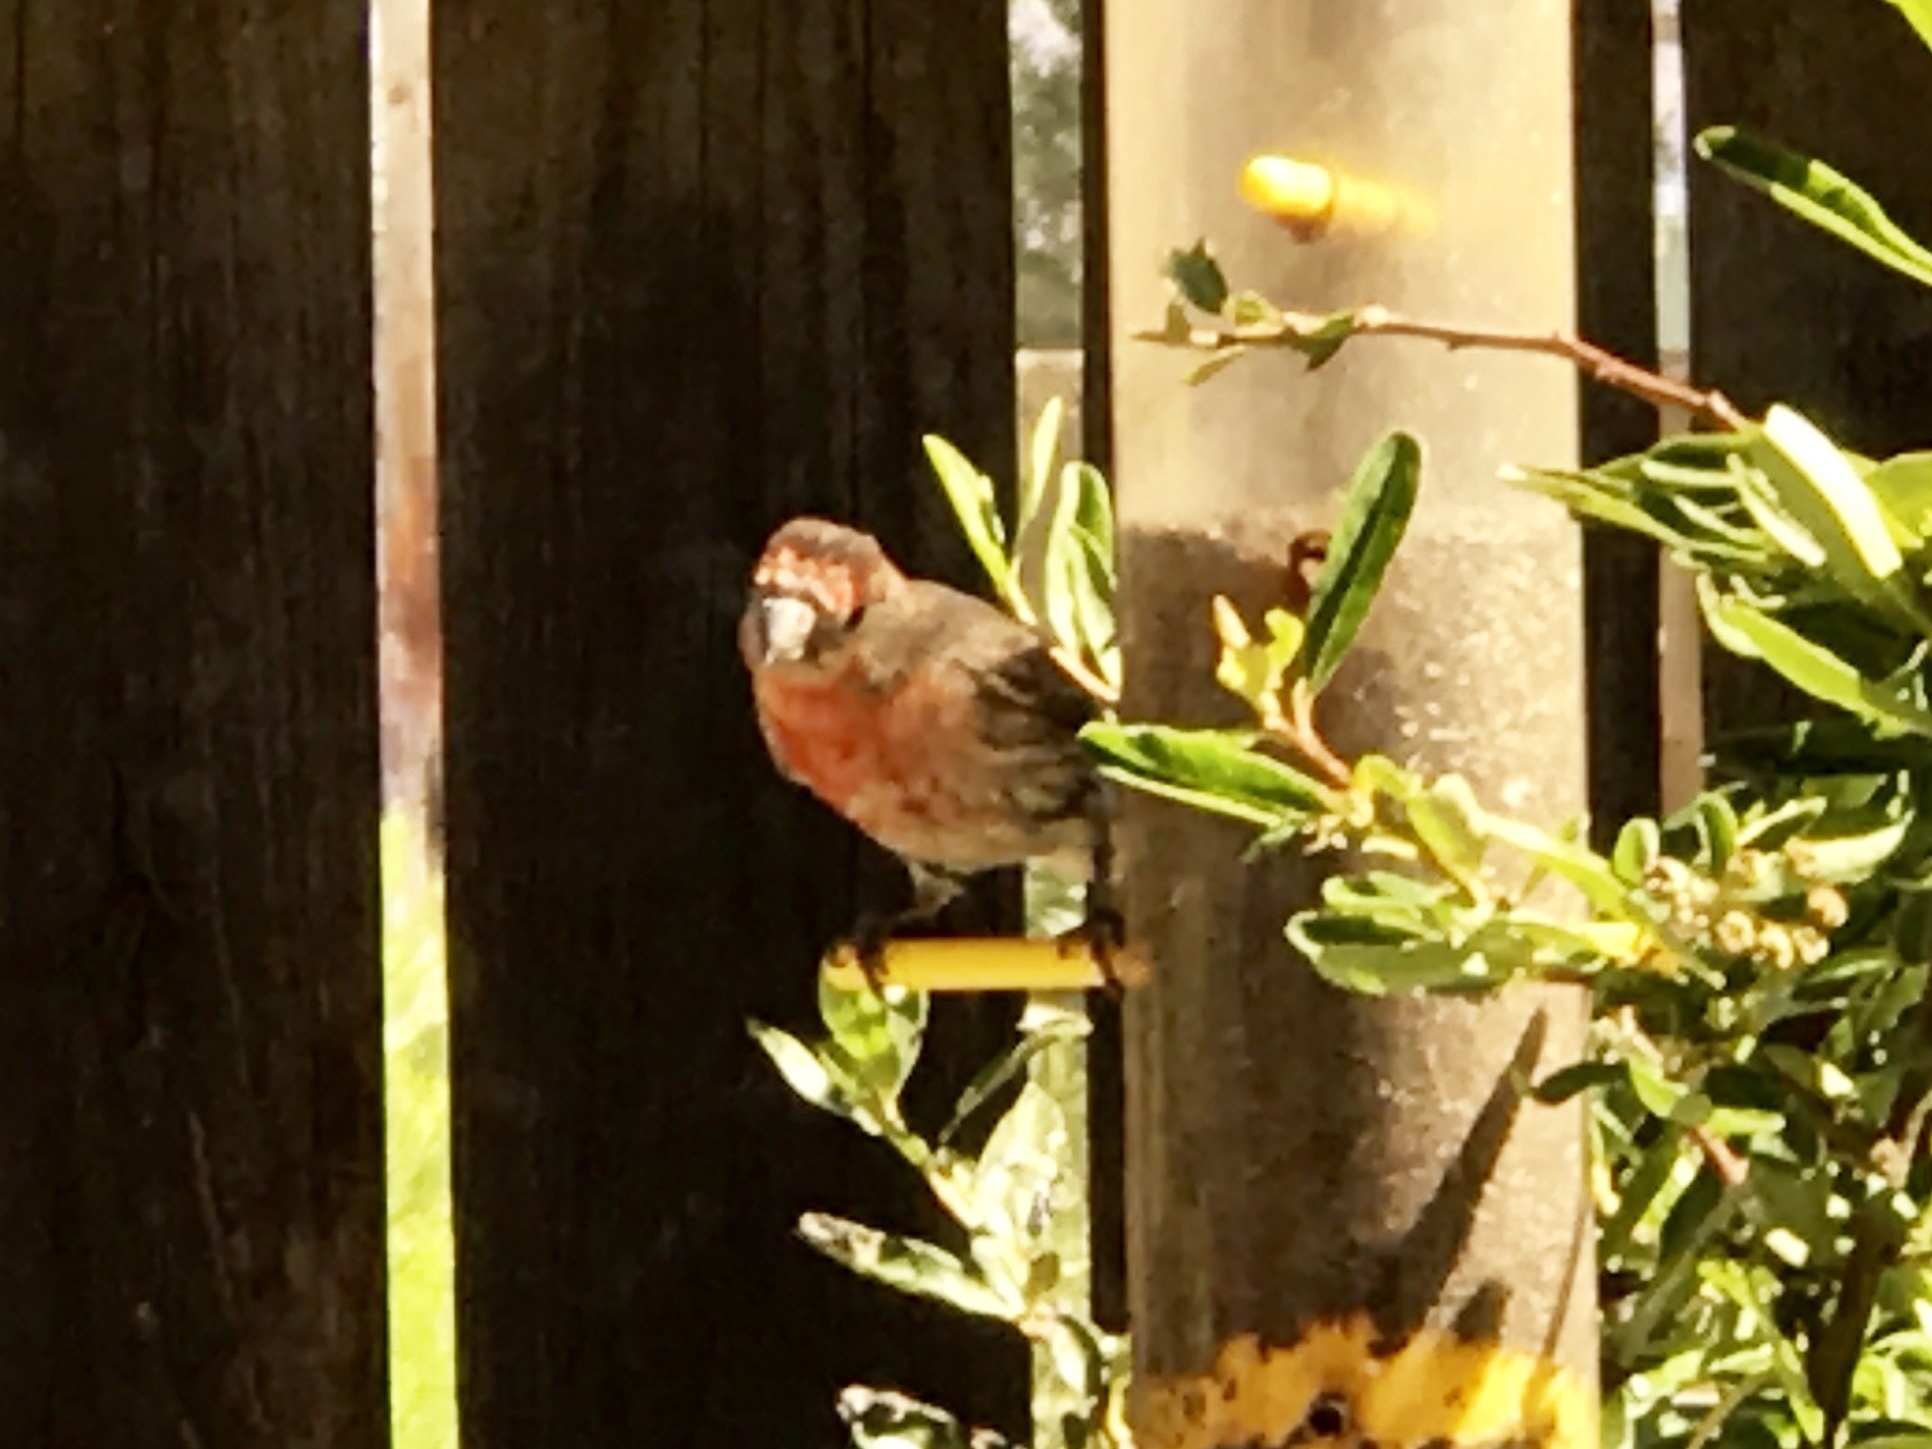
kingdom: Animalia
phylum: Chordata
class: Aves
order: Passeriformes
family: Fringillidae
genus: Haemorhous
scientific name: Haemorhous mexicanus
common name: House finch
